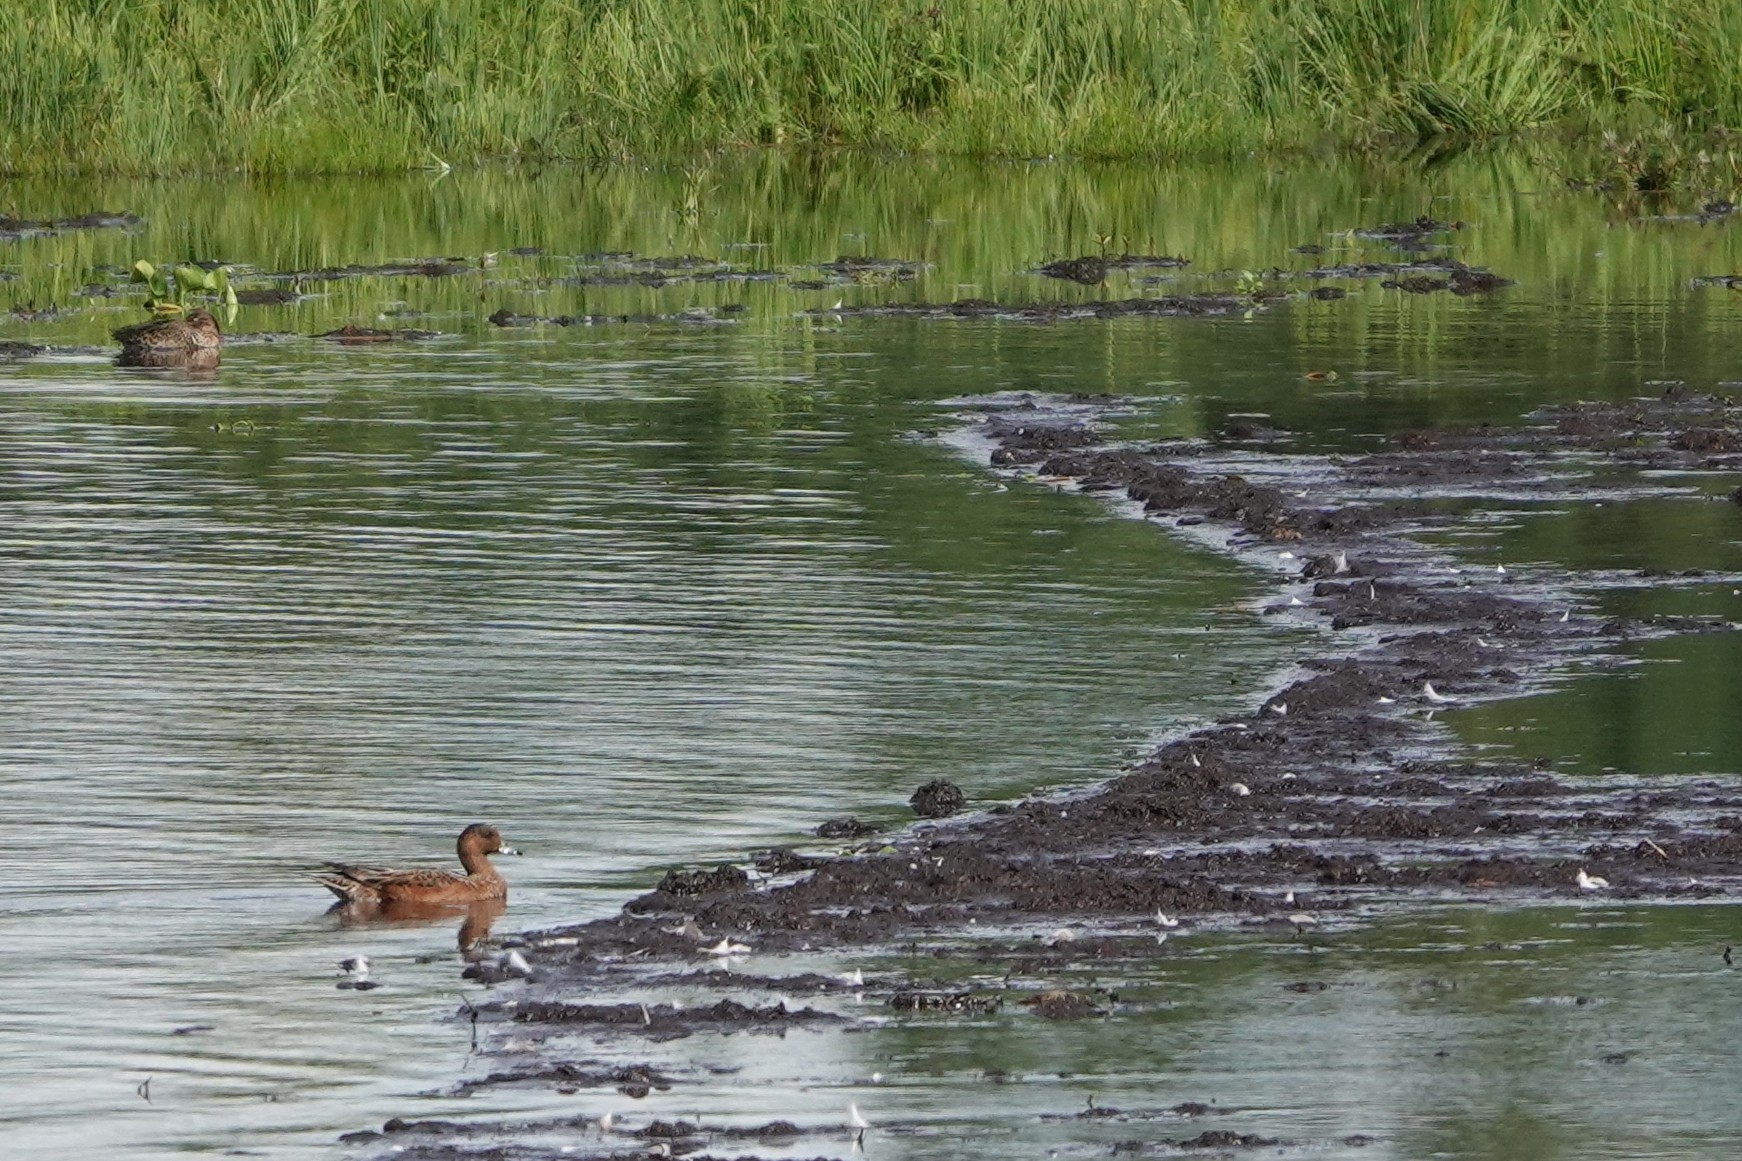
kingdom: Animalia
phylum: Chordata
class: Aves
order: Anseriformes
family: Anatidae
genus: Mareca
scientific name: Mareca penelope
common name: Eurasian wigeon
